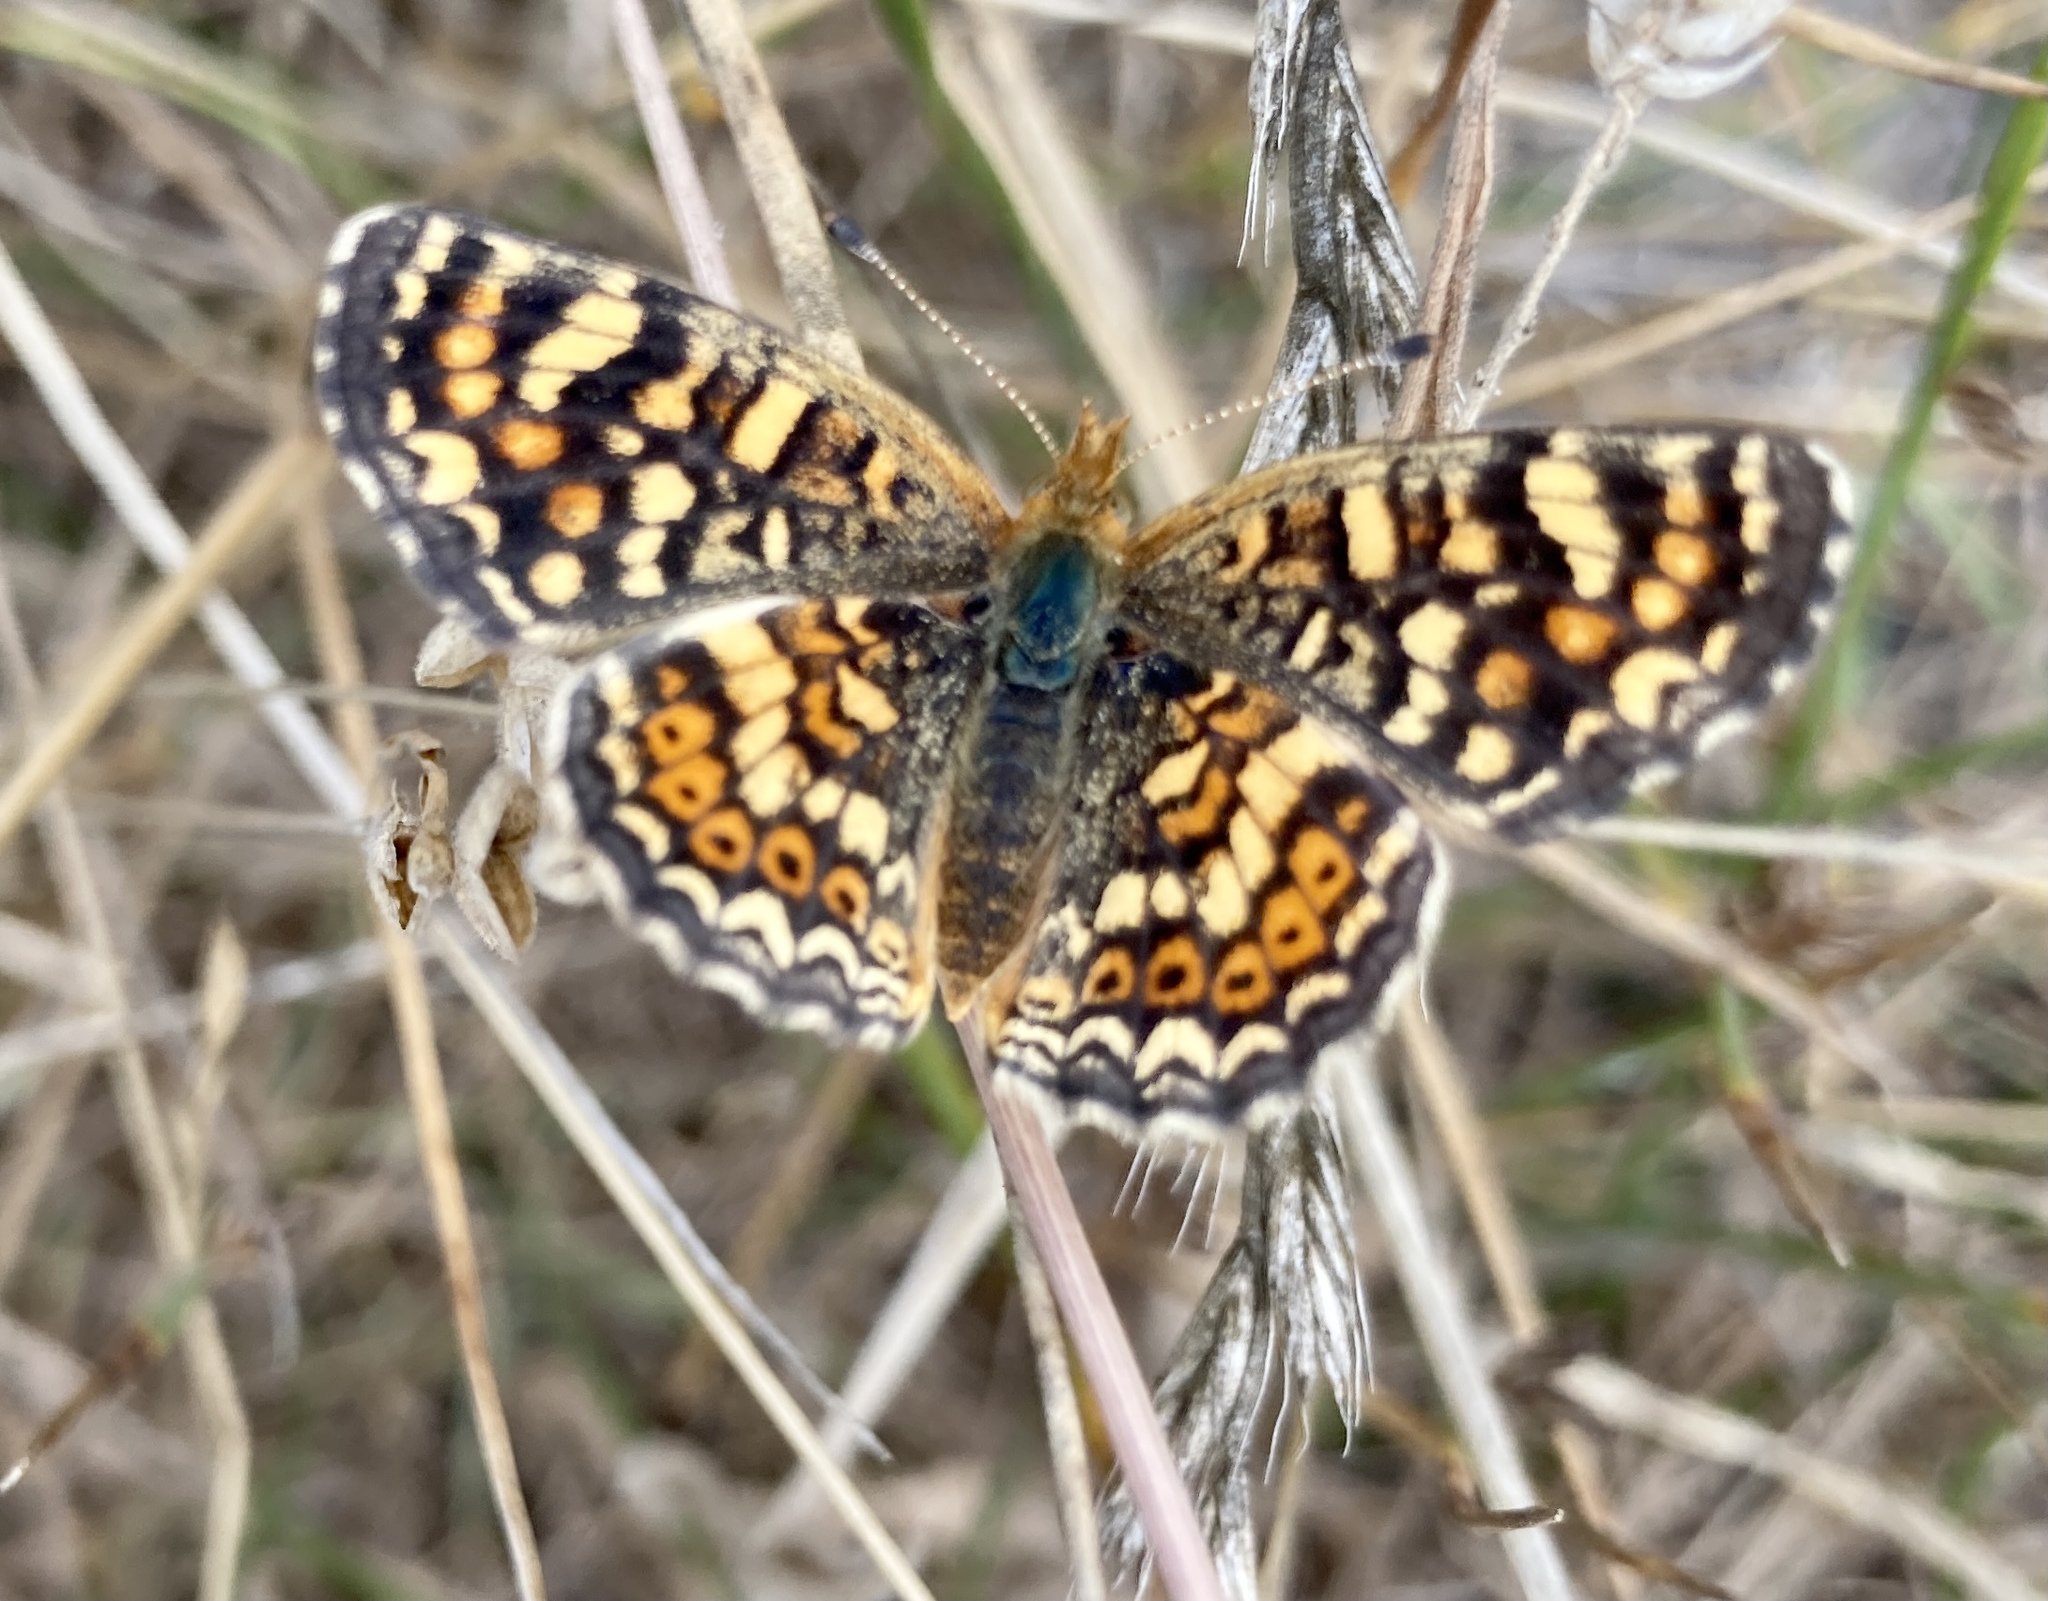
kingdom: Animalia
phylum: Arthropoda
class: Insecta
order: Lepidoptera
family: Nymphalidae
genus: Phyciodes
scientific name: Phyciodes tharos
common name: Pearl crescent
